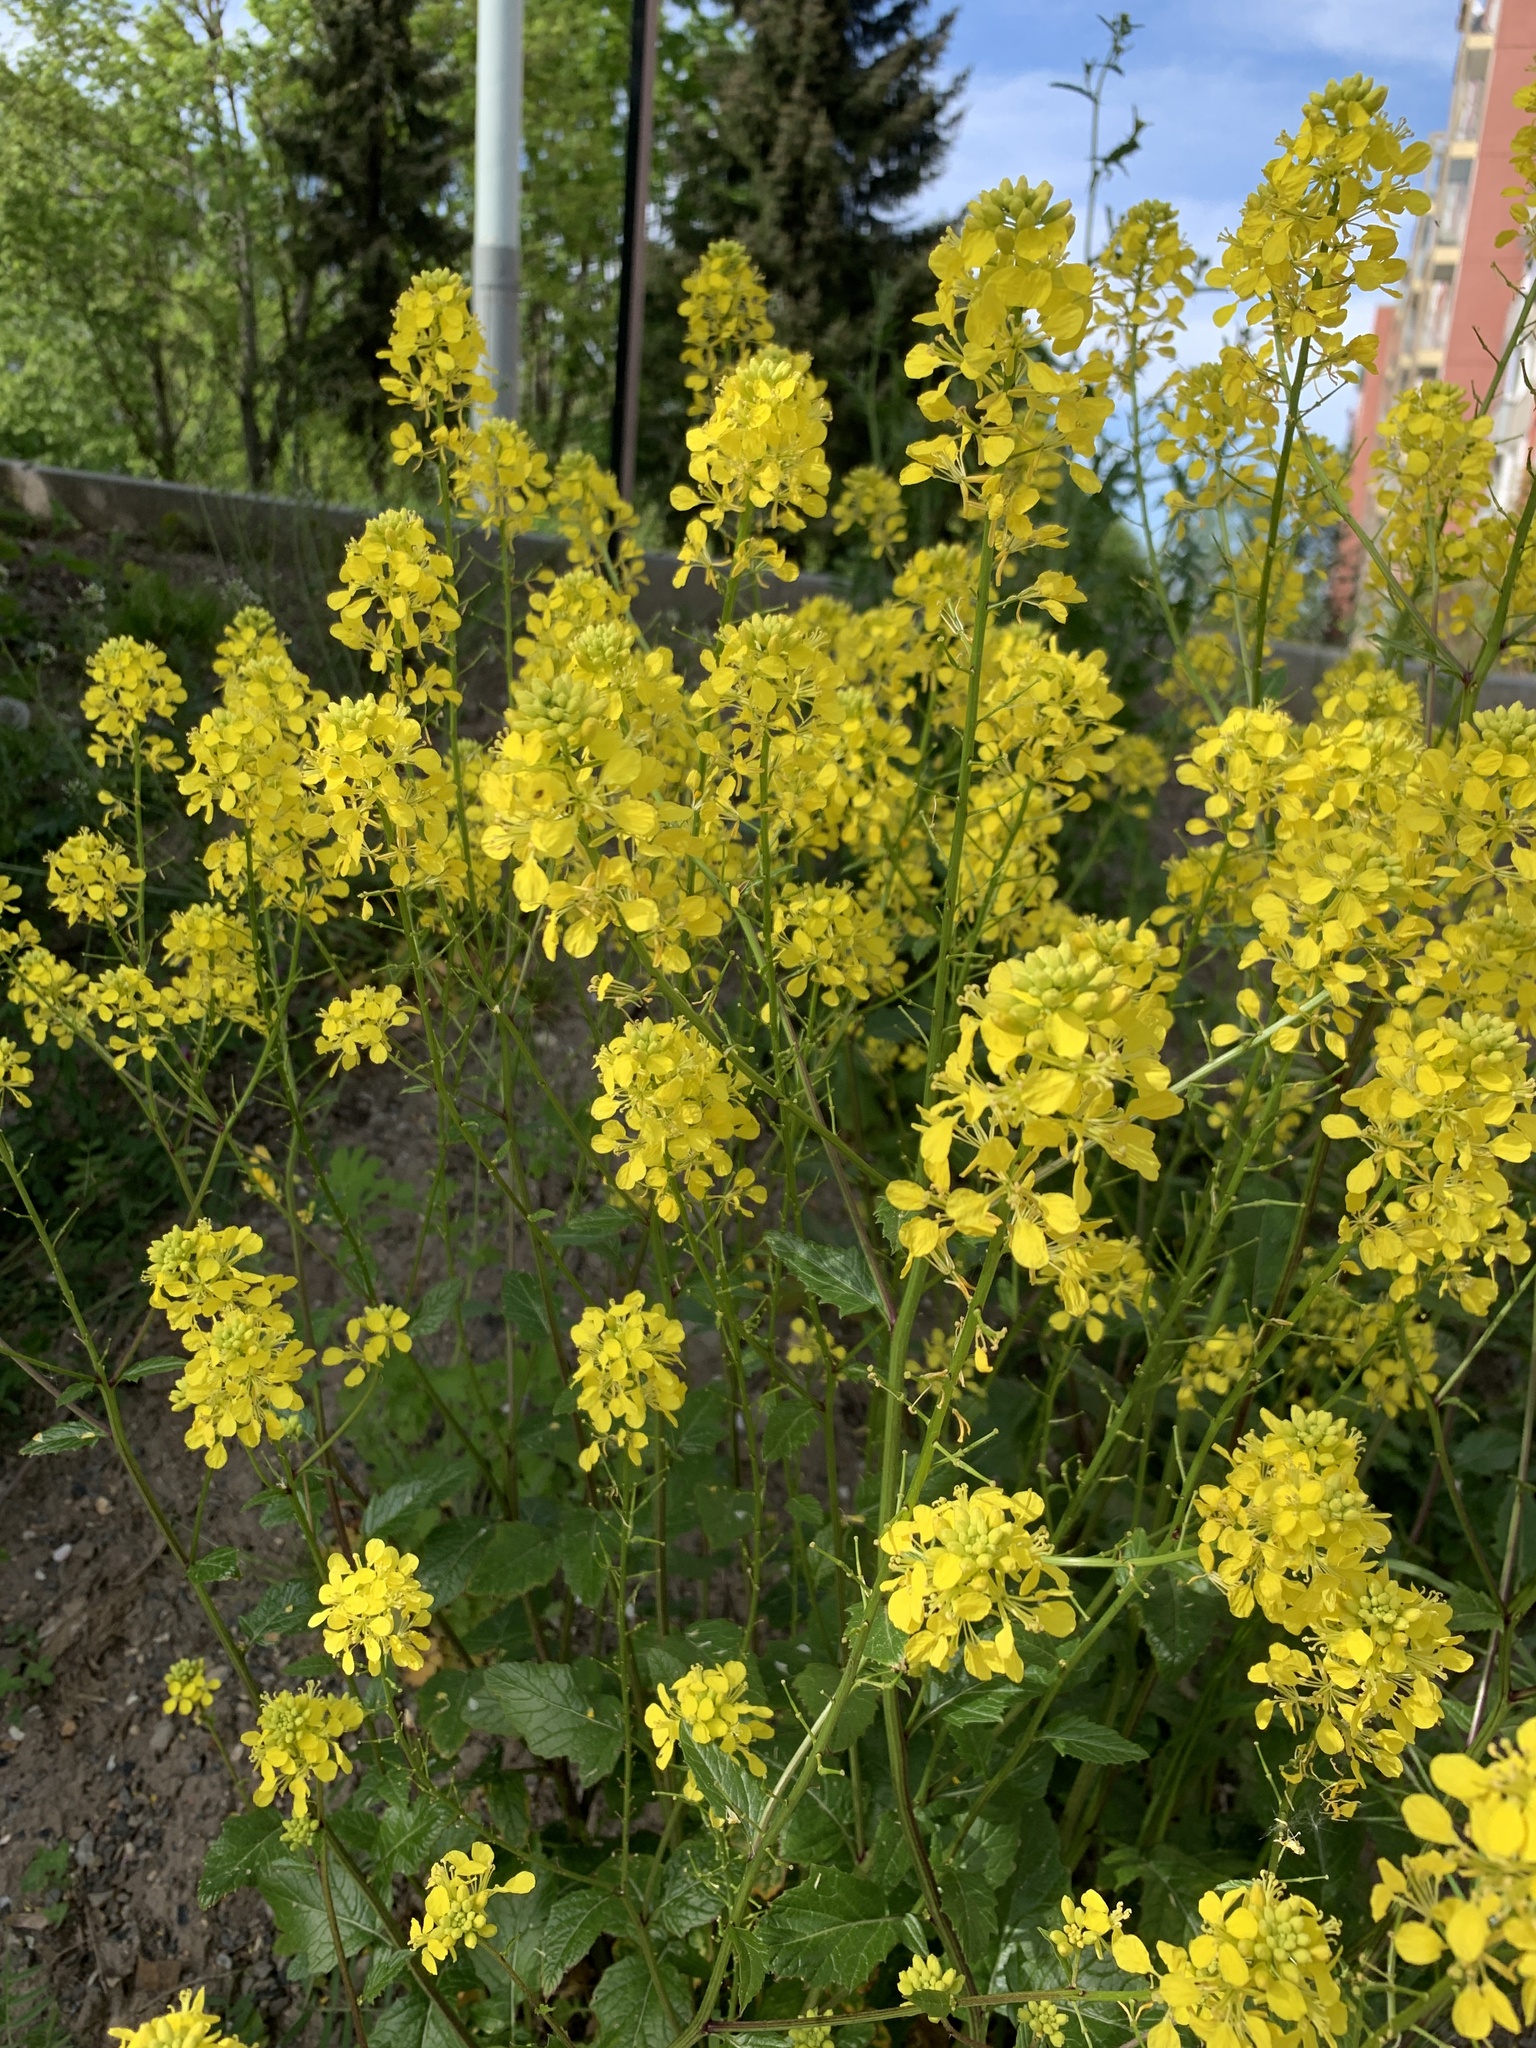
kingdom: Plantae
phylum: Tracheophyta
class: Magnoliopsida
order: Brassicales
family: Brassicaceae
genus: Sinapis
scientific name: Sinapis arvensis
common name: Charlock
